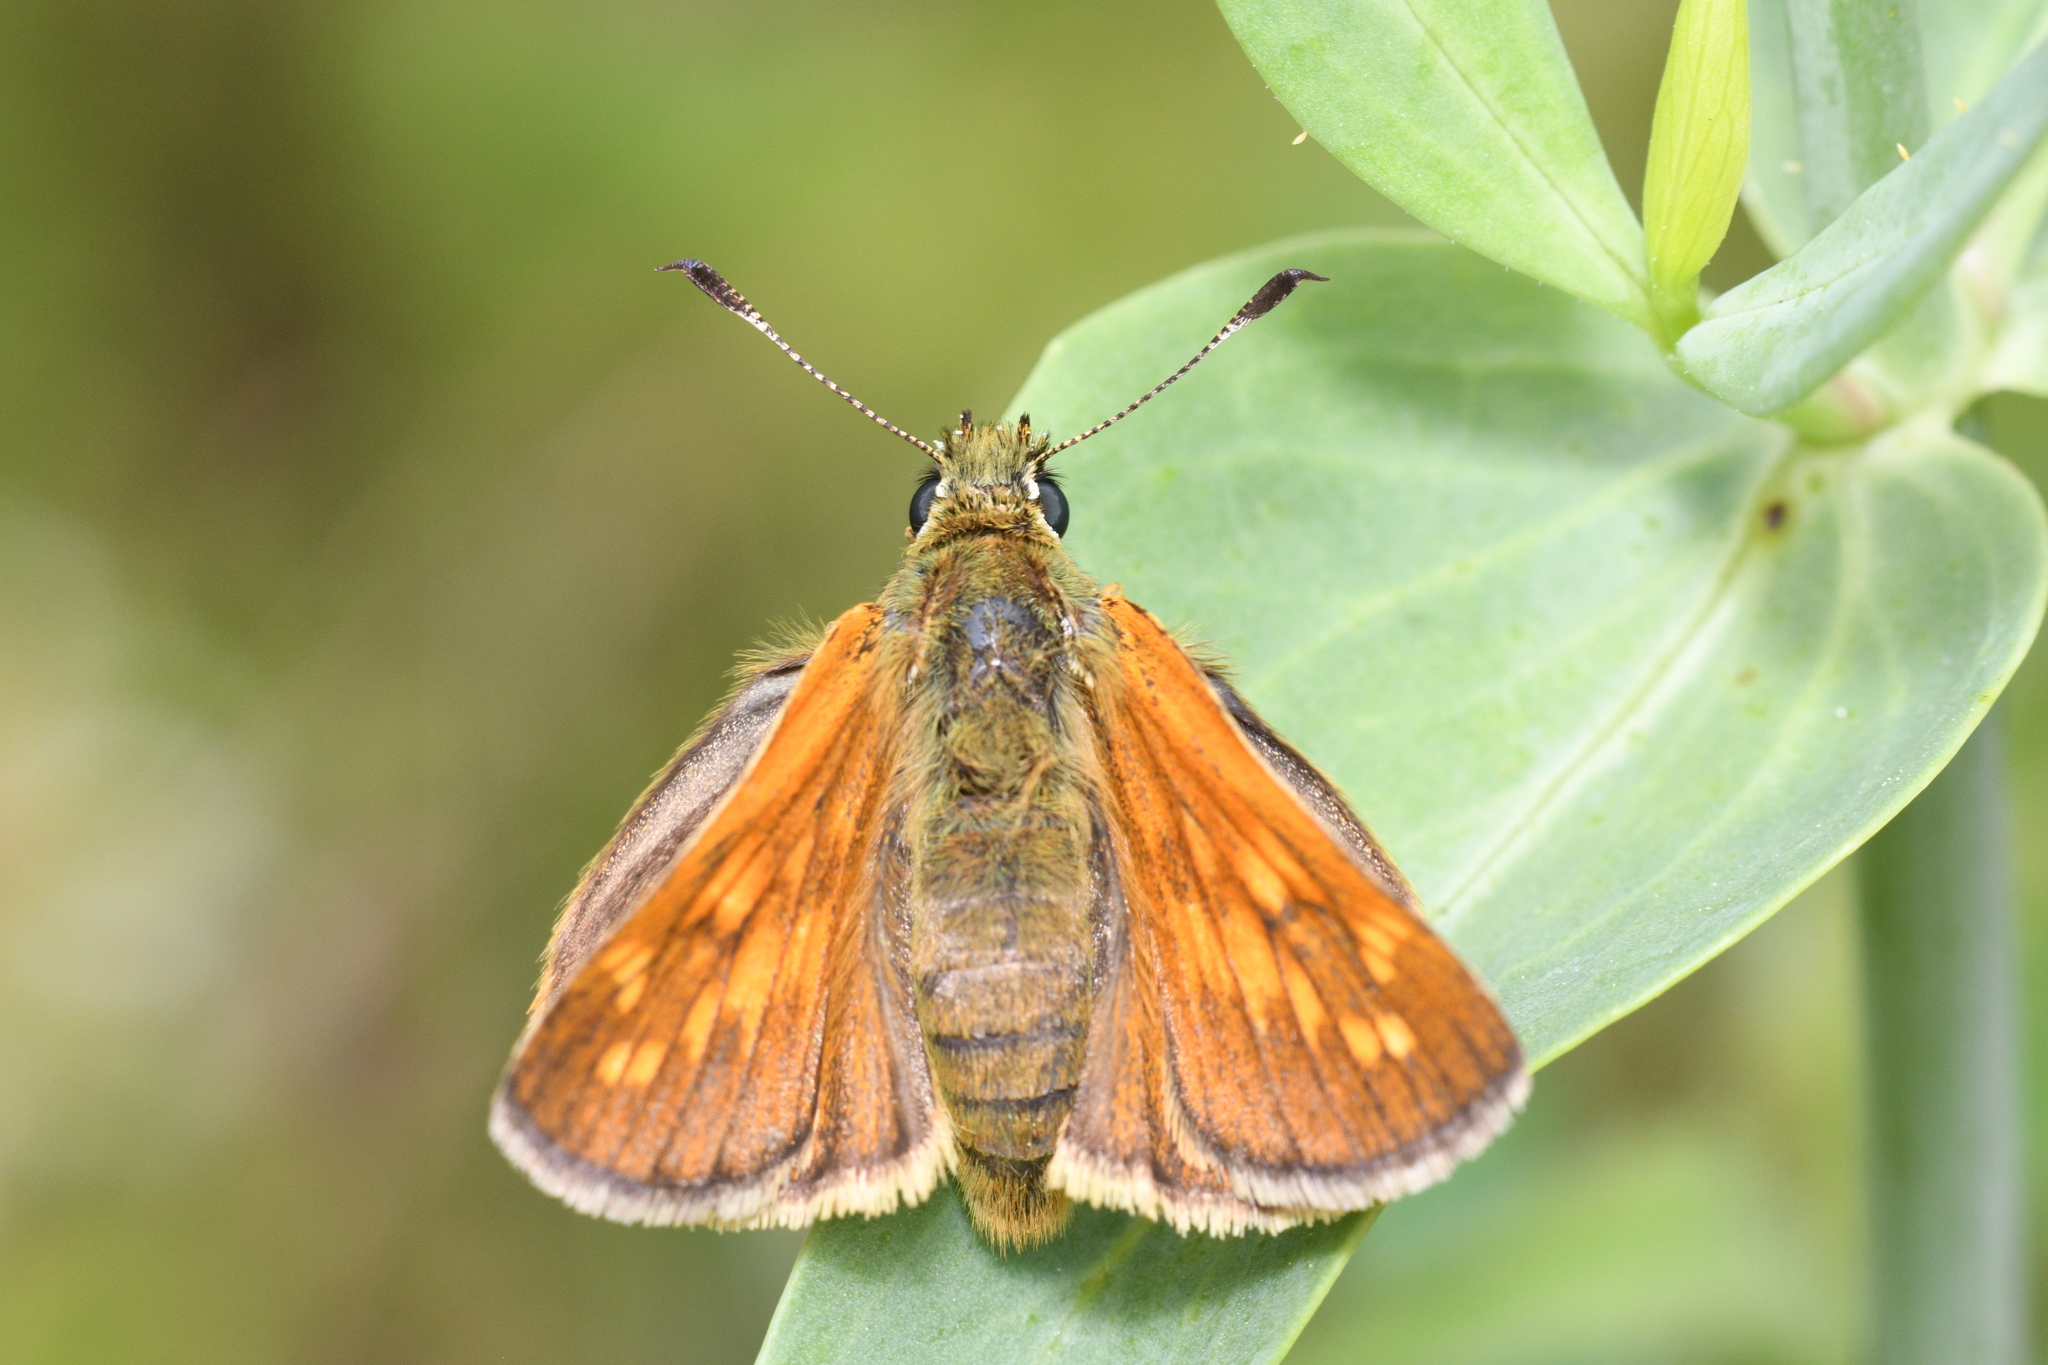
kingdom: Animalia
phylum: Arthropoda
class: Insecta
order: Lepidoptera
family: Hesperiidae
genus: Ochlodes
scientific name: Ochlodes venata
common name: Large skipper
